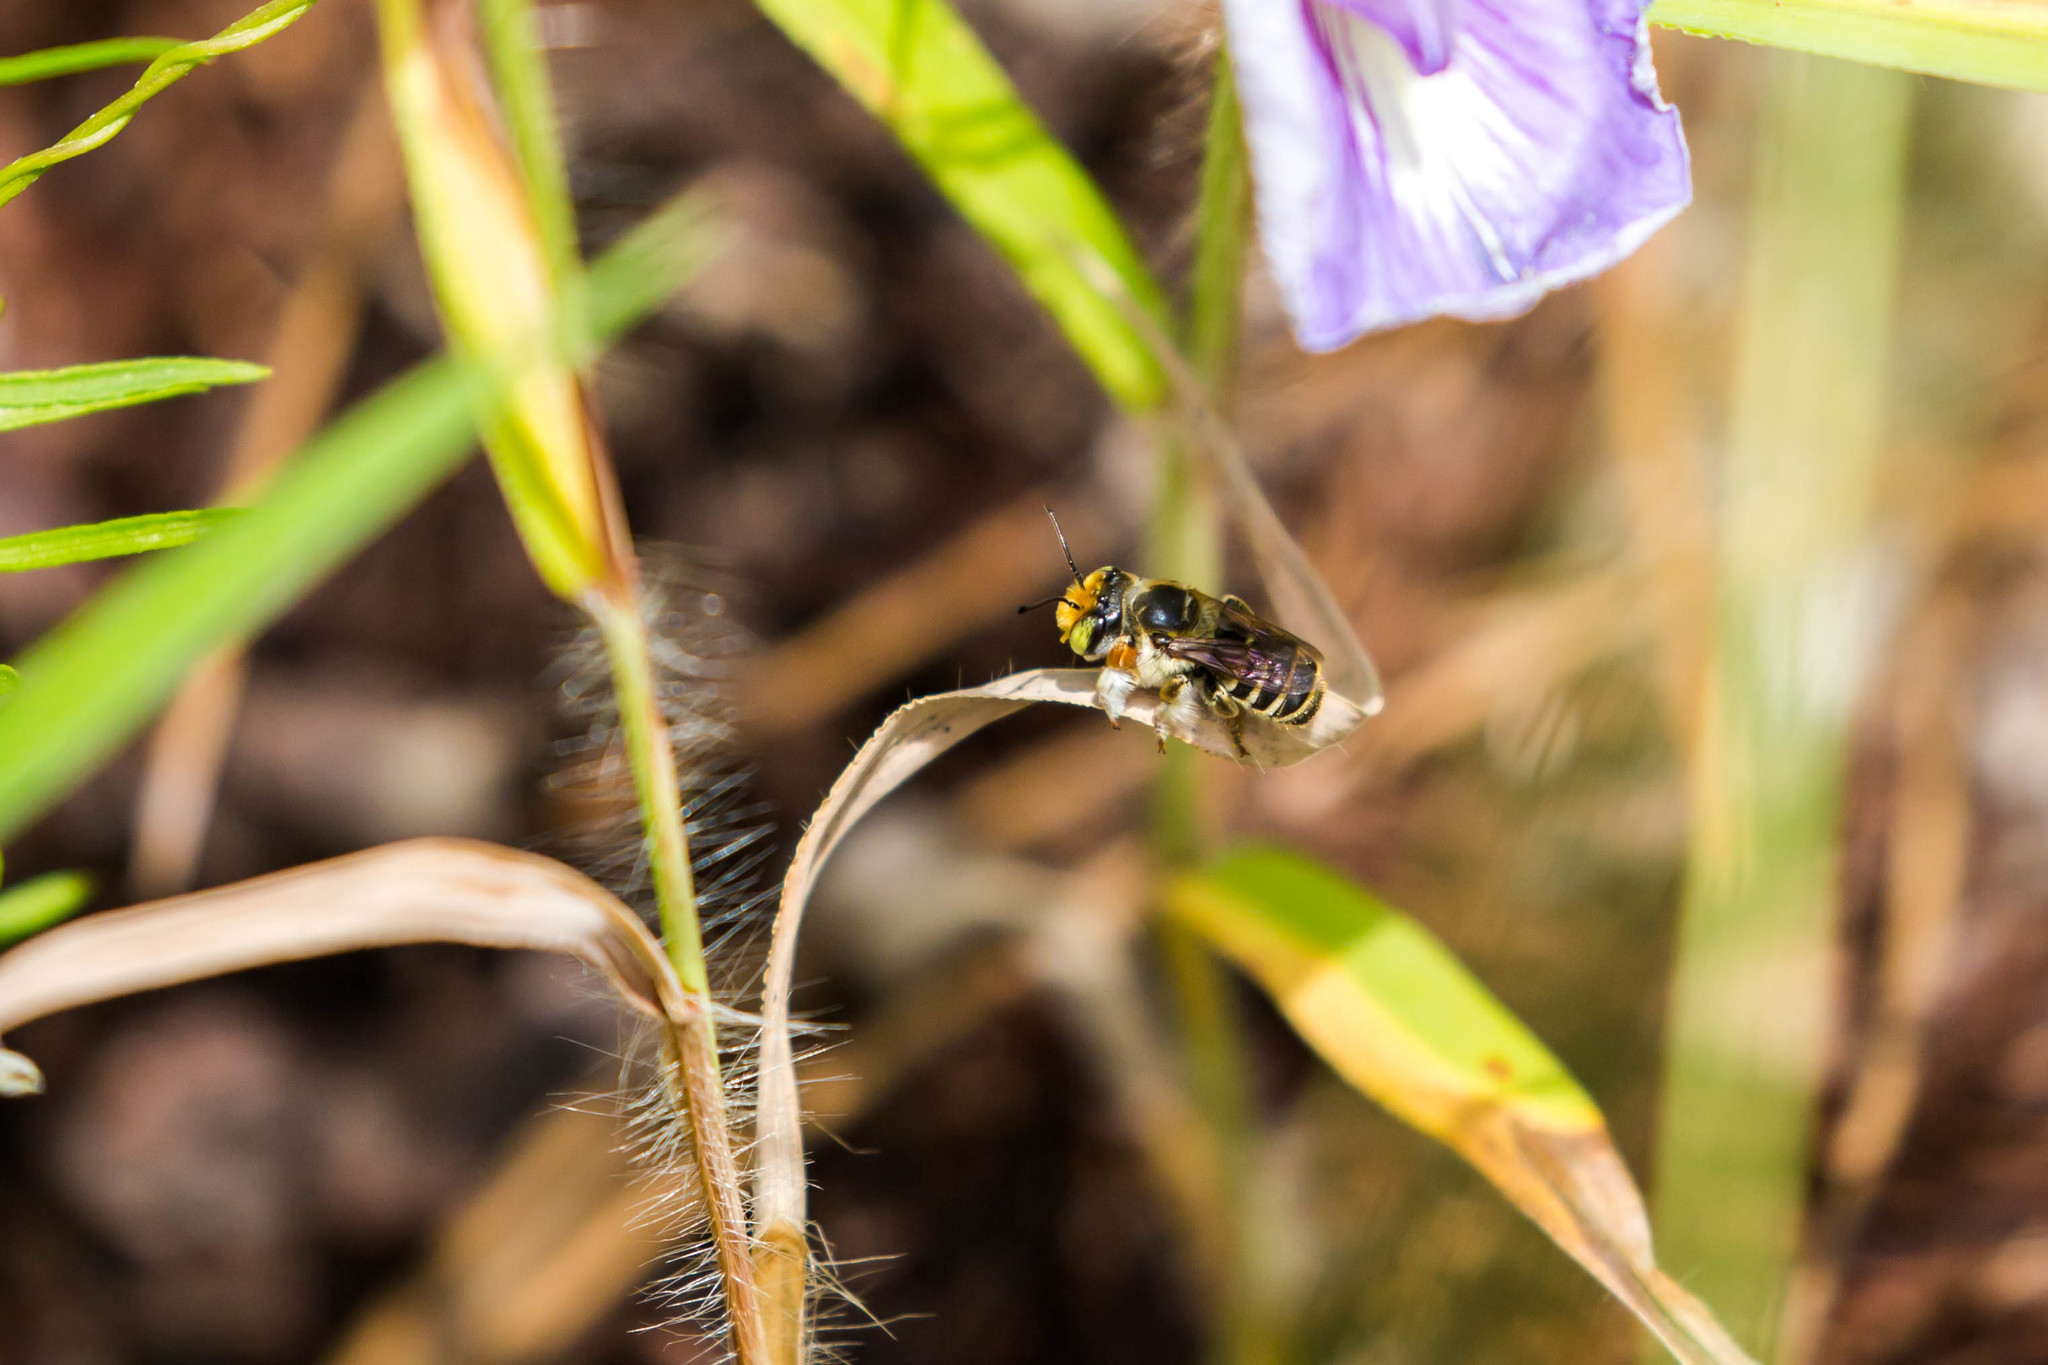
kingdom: Animalia
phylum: Arthropoda
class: Insecta
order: Hymenoptera
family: Megachilidae
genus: Megachile
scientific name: Megachile albitarsis
